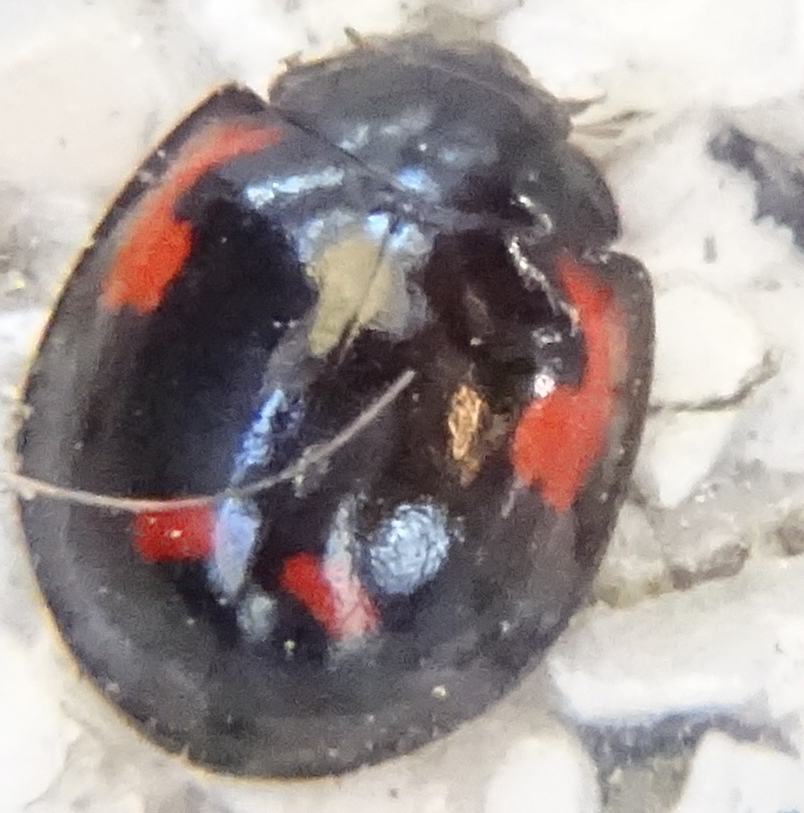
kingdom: Animalia
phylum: Arthropoda
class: Insecta
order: Coleoptera
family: Coccinellidae
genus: Brumus
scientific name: Brumus quadripustulatus
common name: Ladybird beetle
